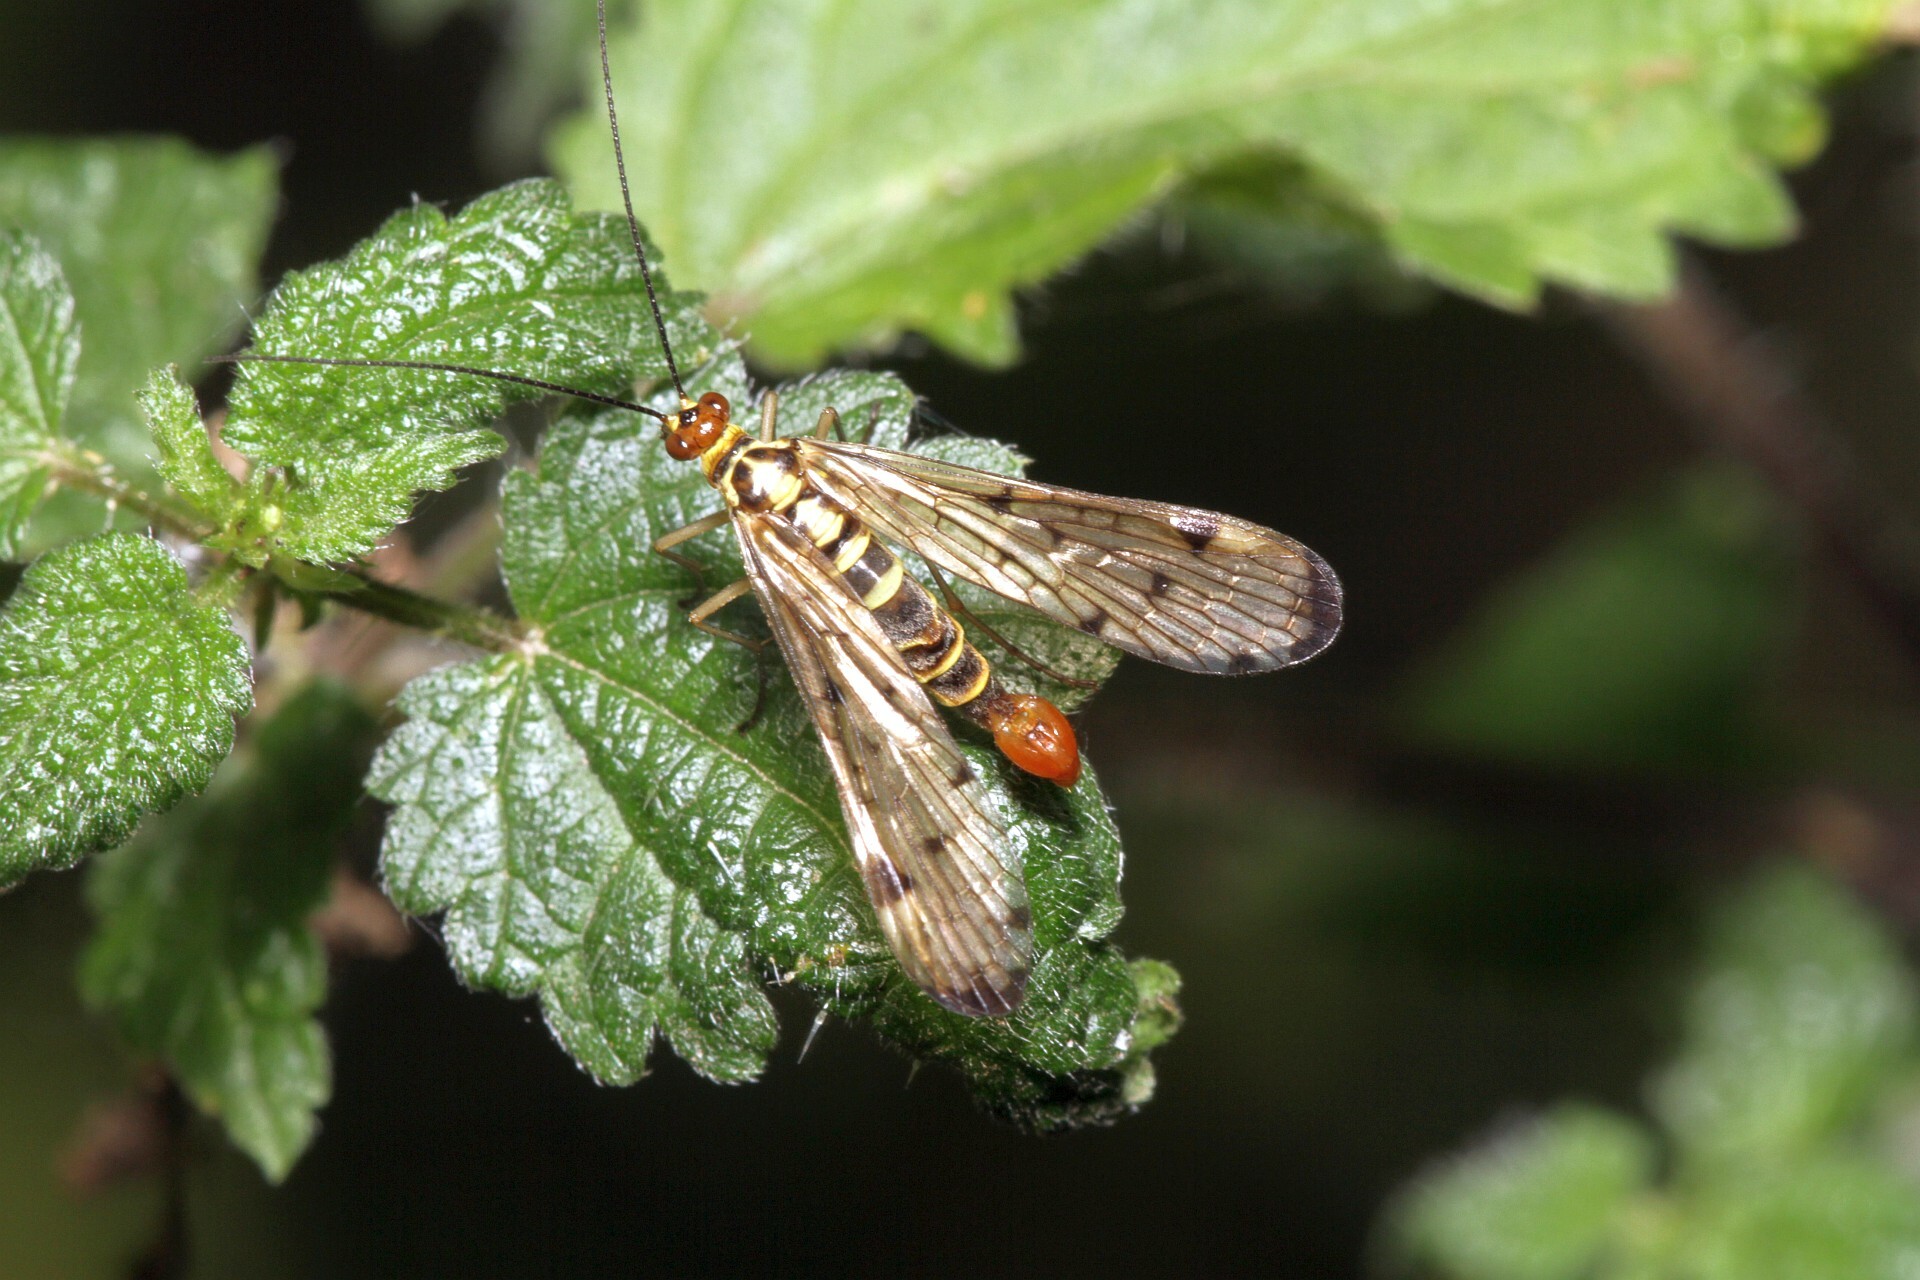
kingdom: Animalia
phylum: Arthropoda
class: Insecta
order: Mecoptera
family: Panorpidae
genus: Panorpa
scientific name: Panorpa germanica
